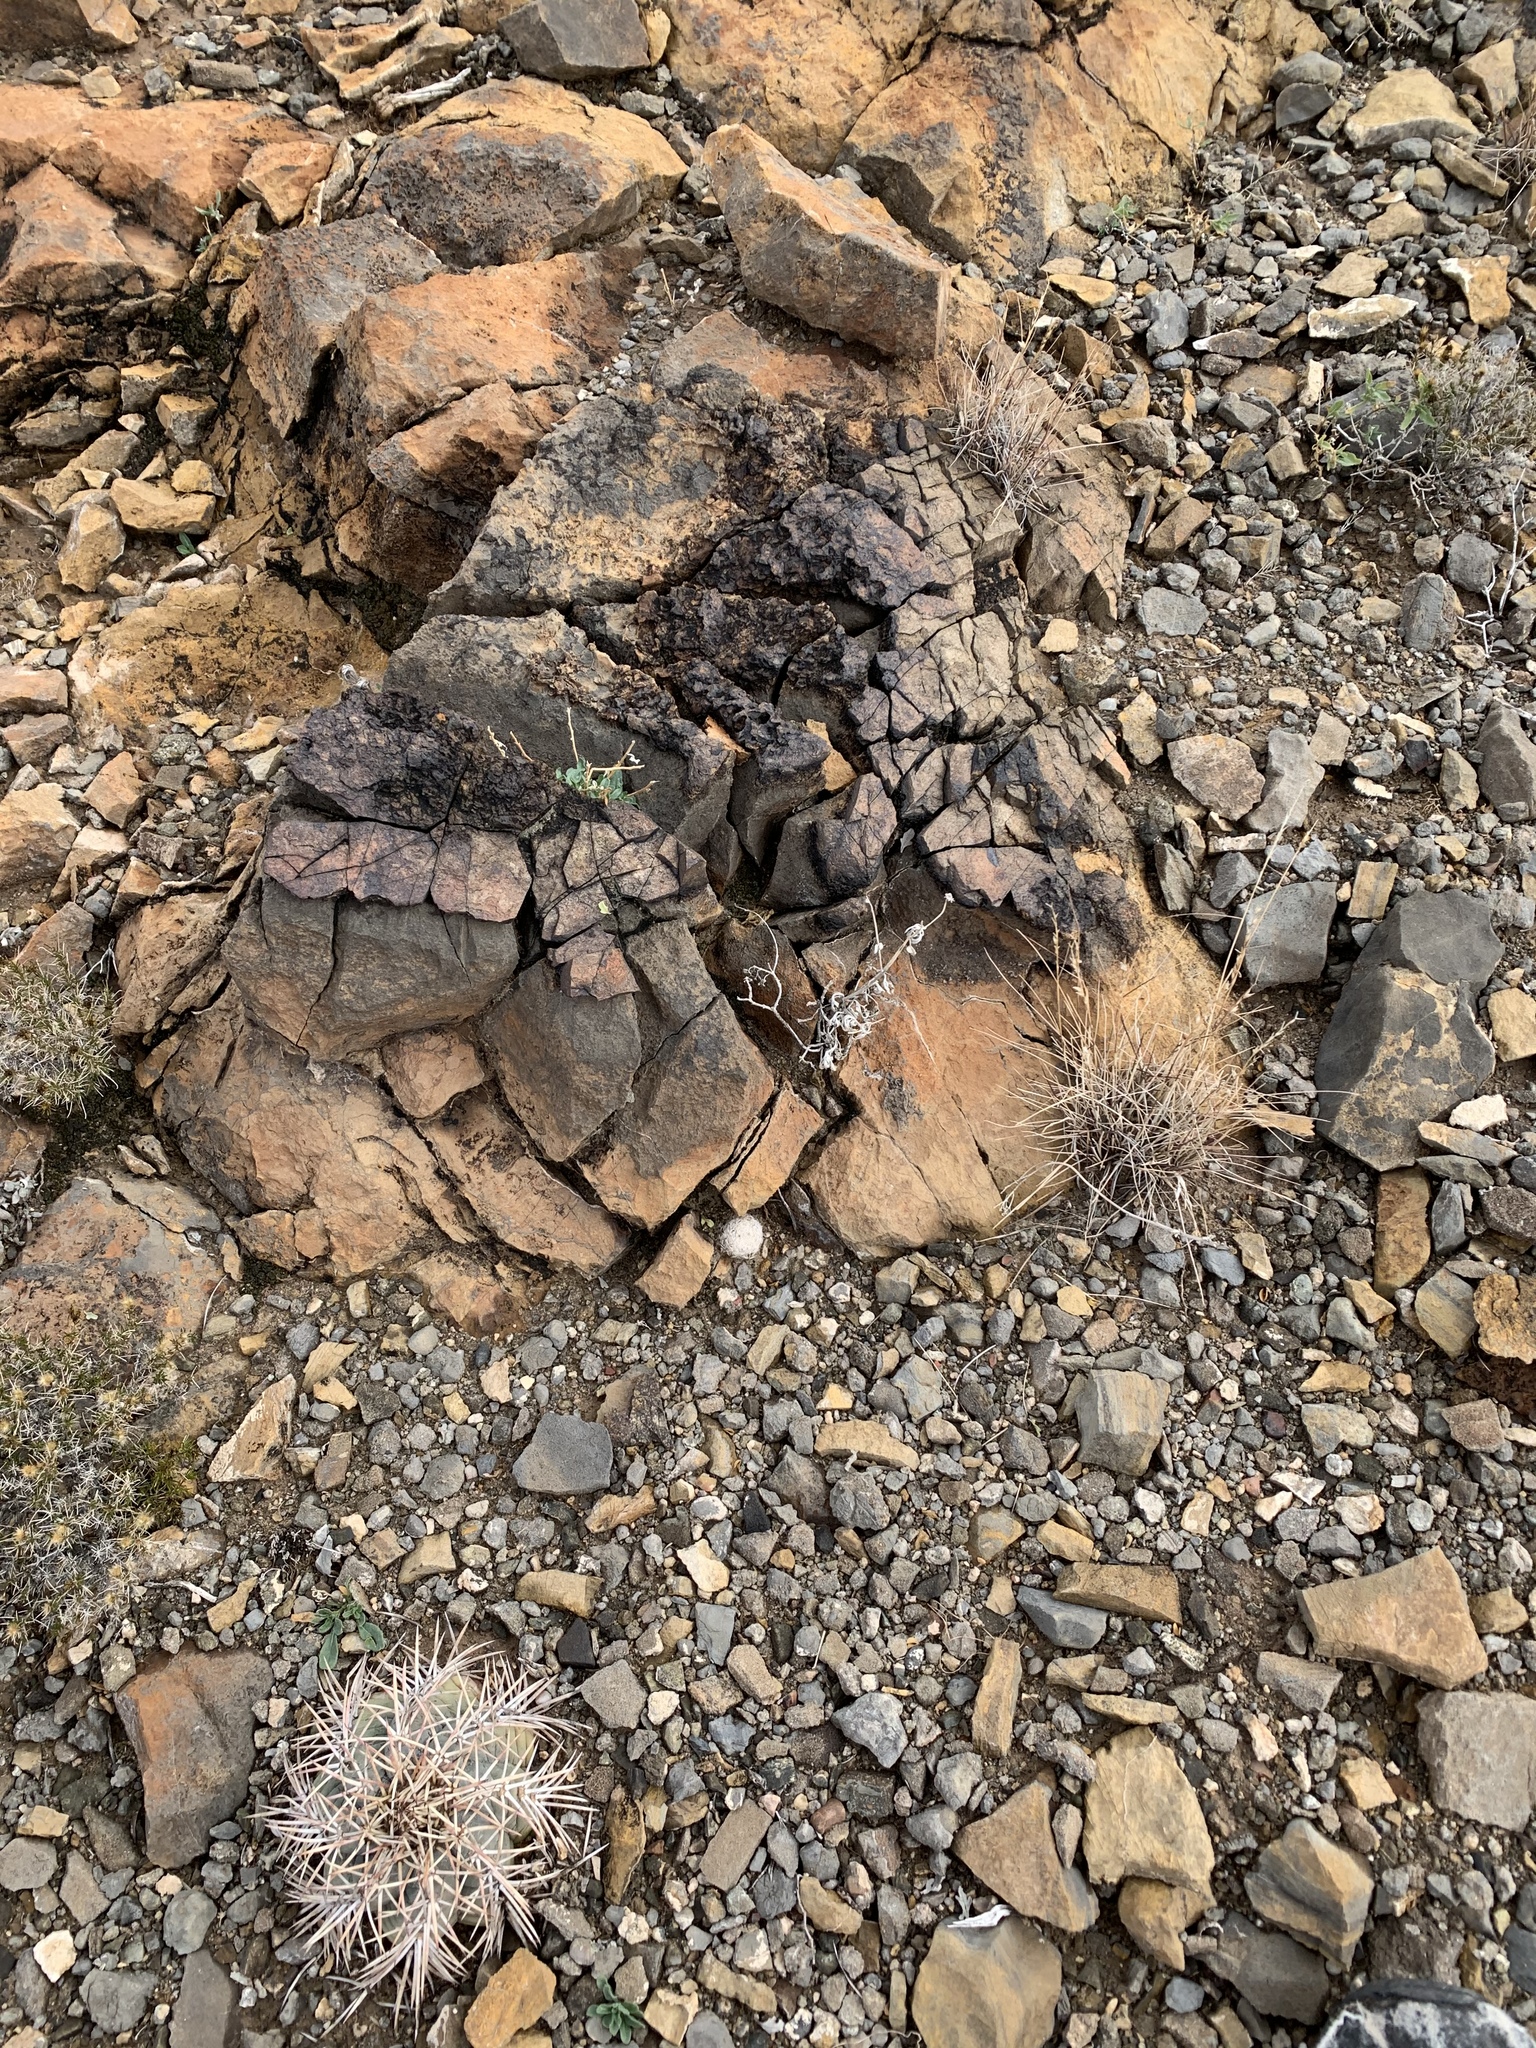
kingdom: Plantae
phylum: Tracheophyta
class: Magnoliopsida
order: Caryophyllales
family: Cactaceae
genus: Echinocactus
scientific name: Echinocactus horizonthalonius
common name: Devilshead
